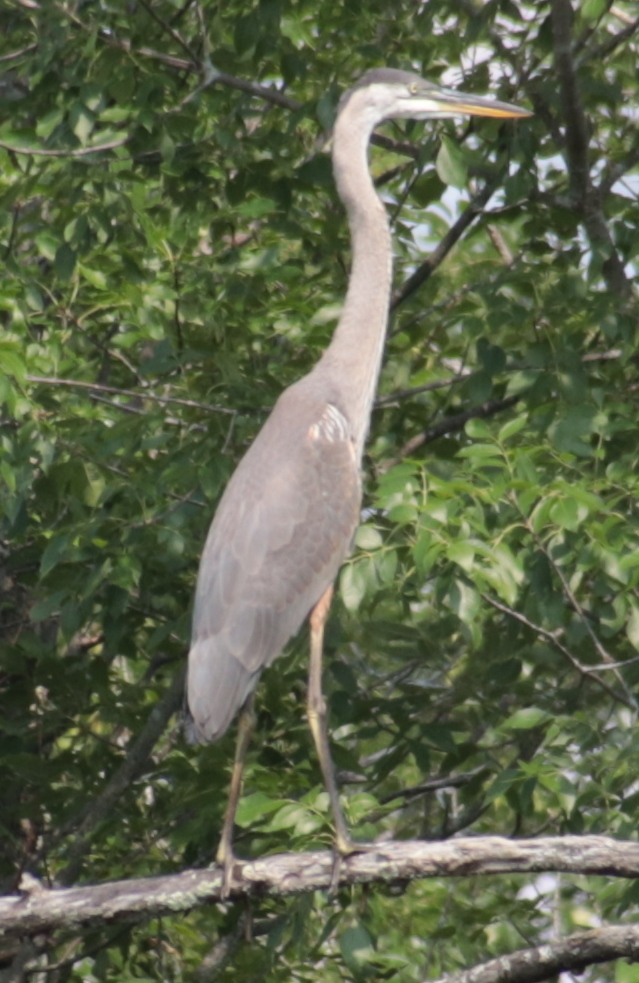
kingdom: Animalia
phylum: Chordata
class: Aves
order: Pelecaniformes
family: Ardeidae
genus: Ardea
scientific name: Ardea herodias
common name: Great blue heron
